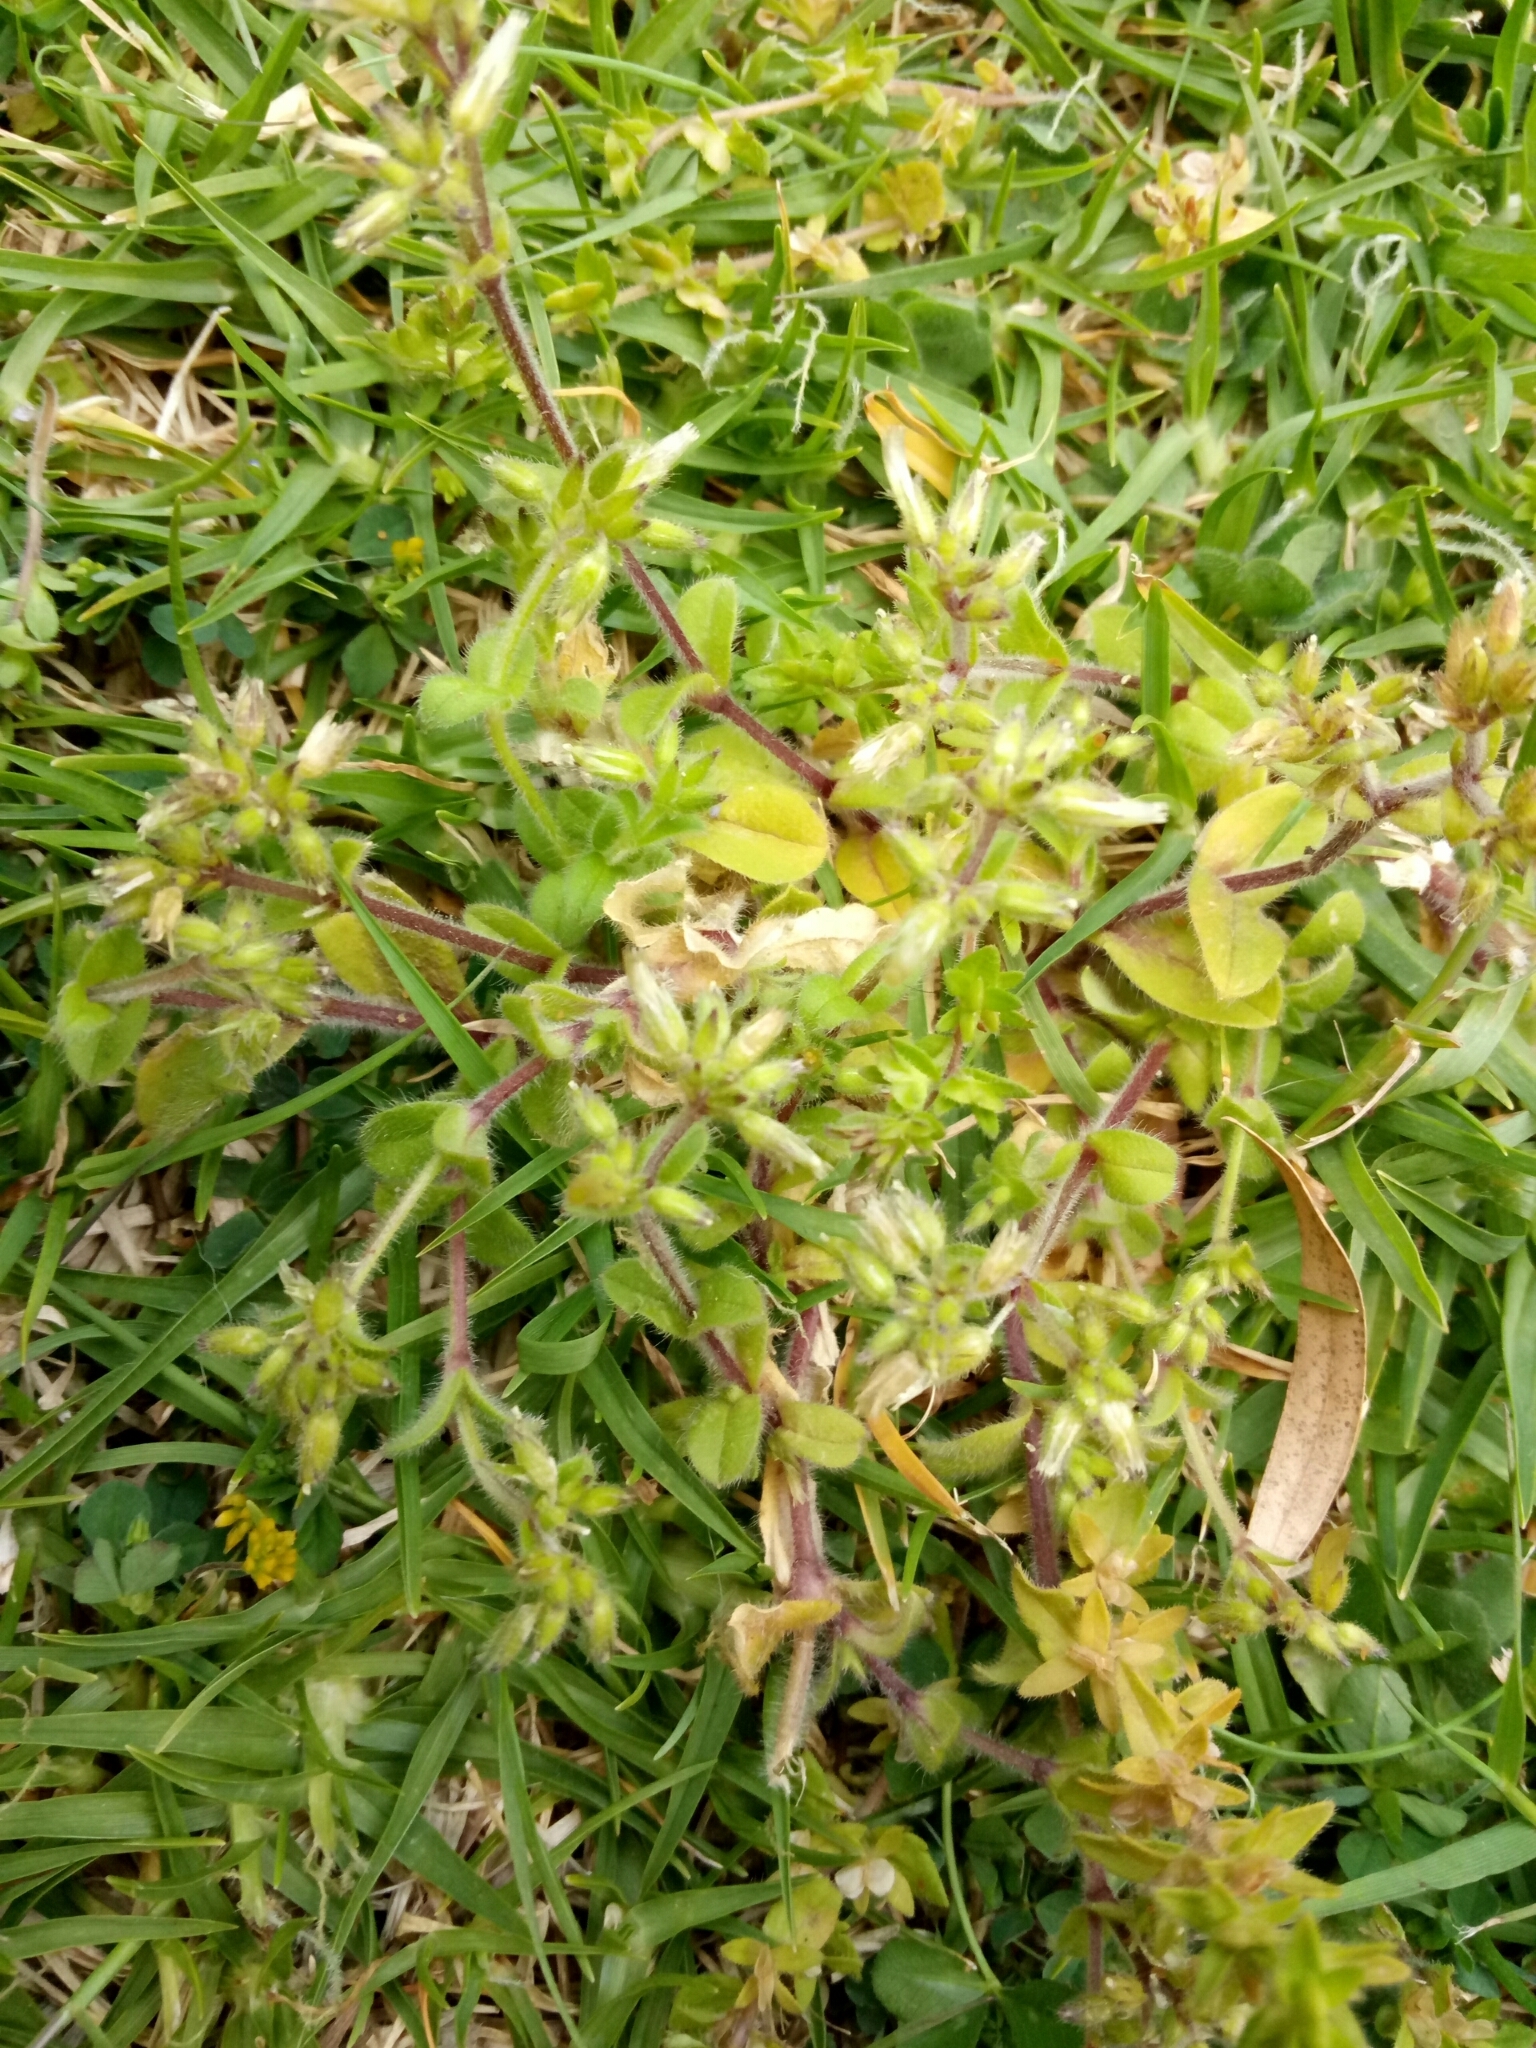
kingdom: Plantae
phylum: Tracheophyta
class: Magnoliopsida
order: Caryophyllales
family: Caryophyllaceae
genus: Cerastium
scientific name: Cerastium fontanum
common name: Common mouse-ear
